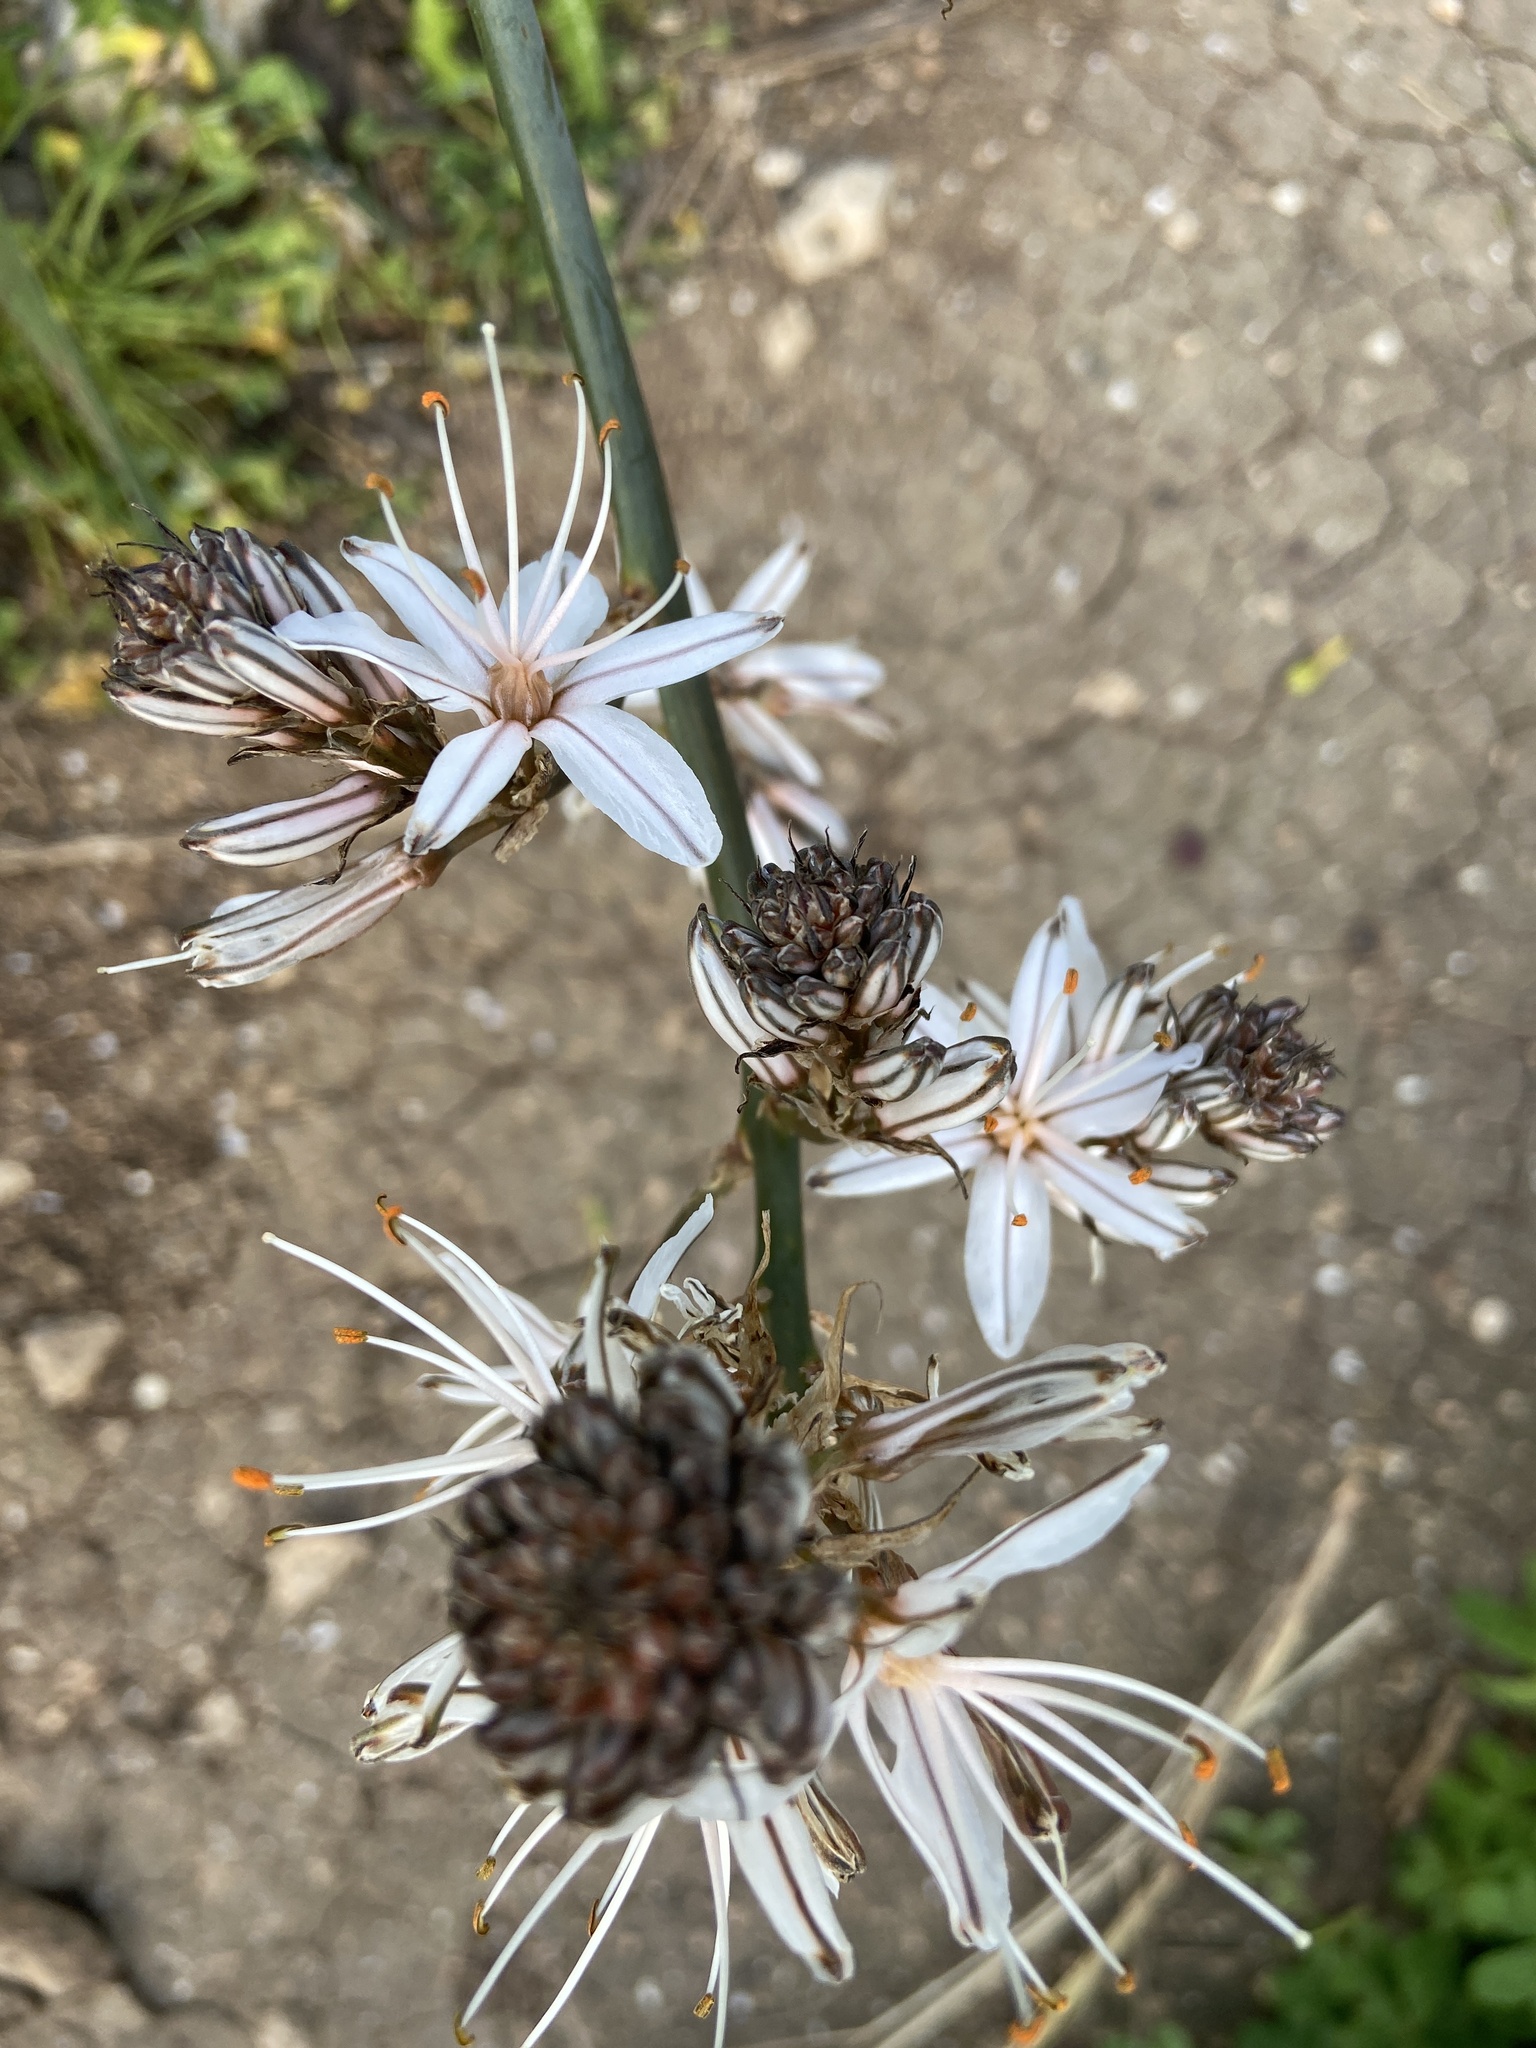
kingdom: Plantae
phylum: Tracheophyta
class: Liliopsida
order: Asparagales
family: Asphodelaceae
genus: Asphodelus
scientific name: Asphodelus ramosus
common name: Silverrod
